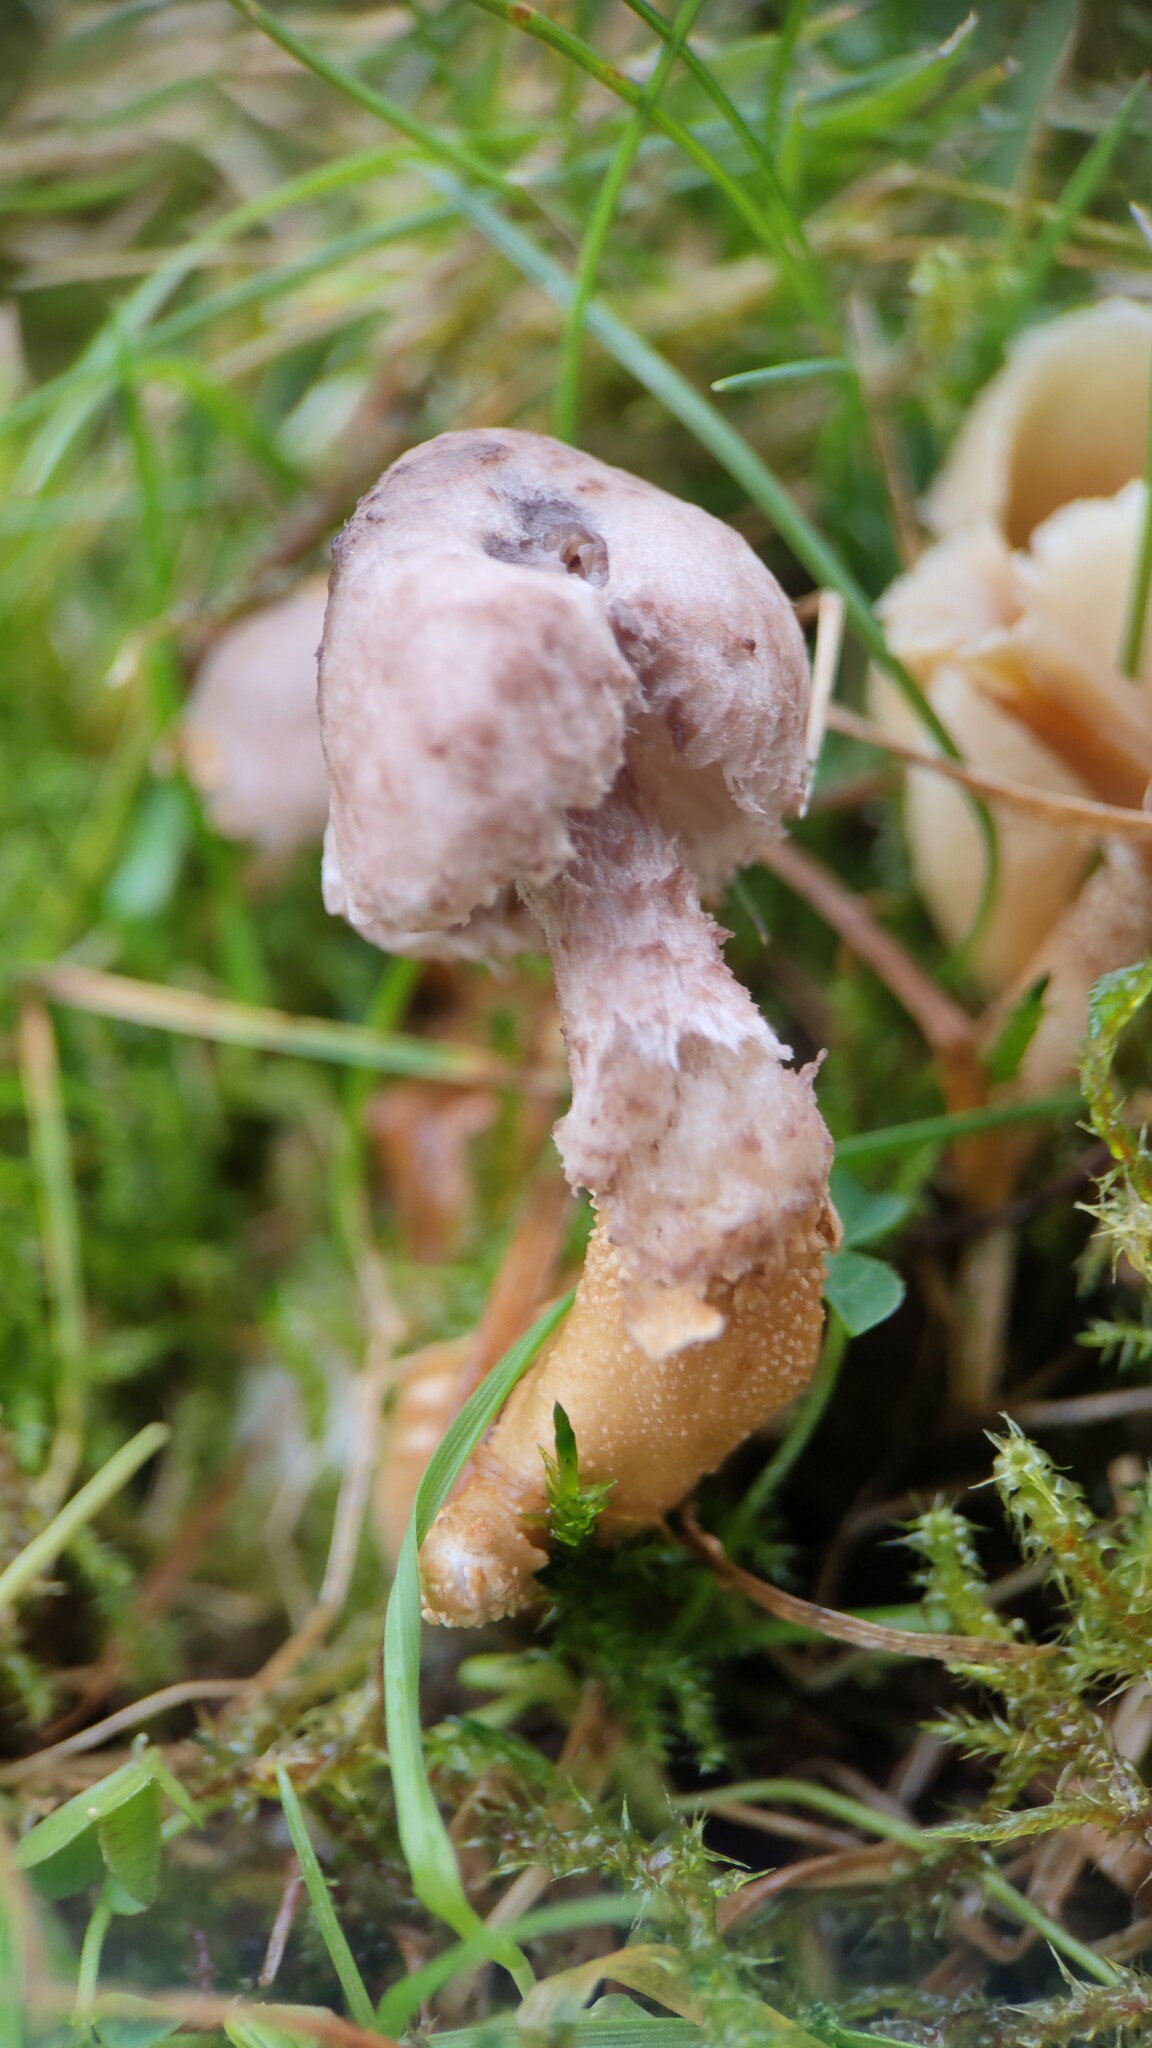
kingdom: Fungi
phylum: Basidiomycota
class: Agaricomycetes
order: Agaricales
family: Tricholomataceae
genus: Squamanita
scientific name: Squamanita paradoxa
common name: Powdercap strangler
